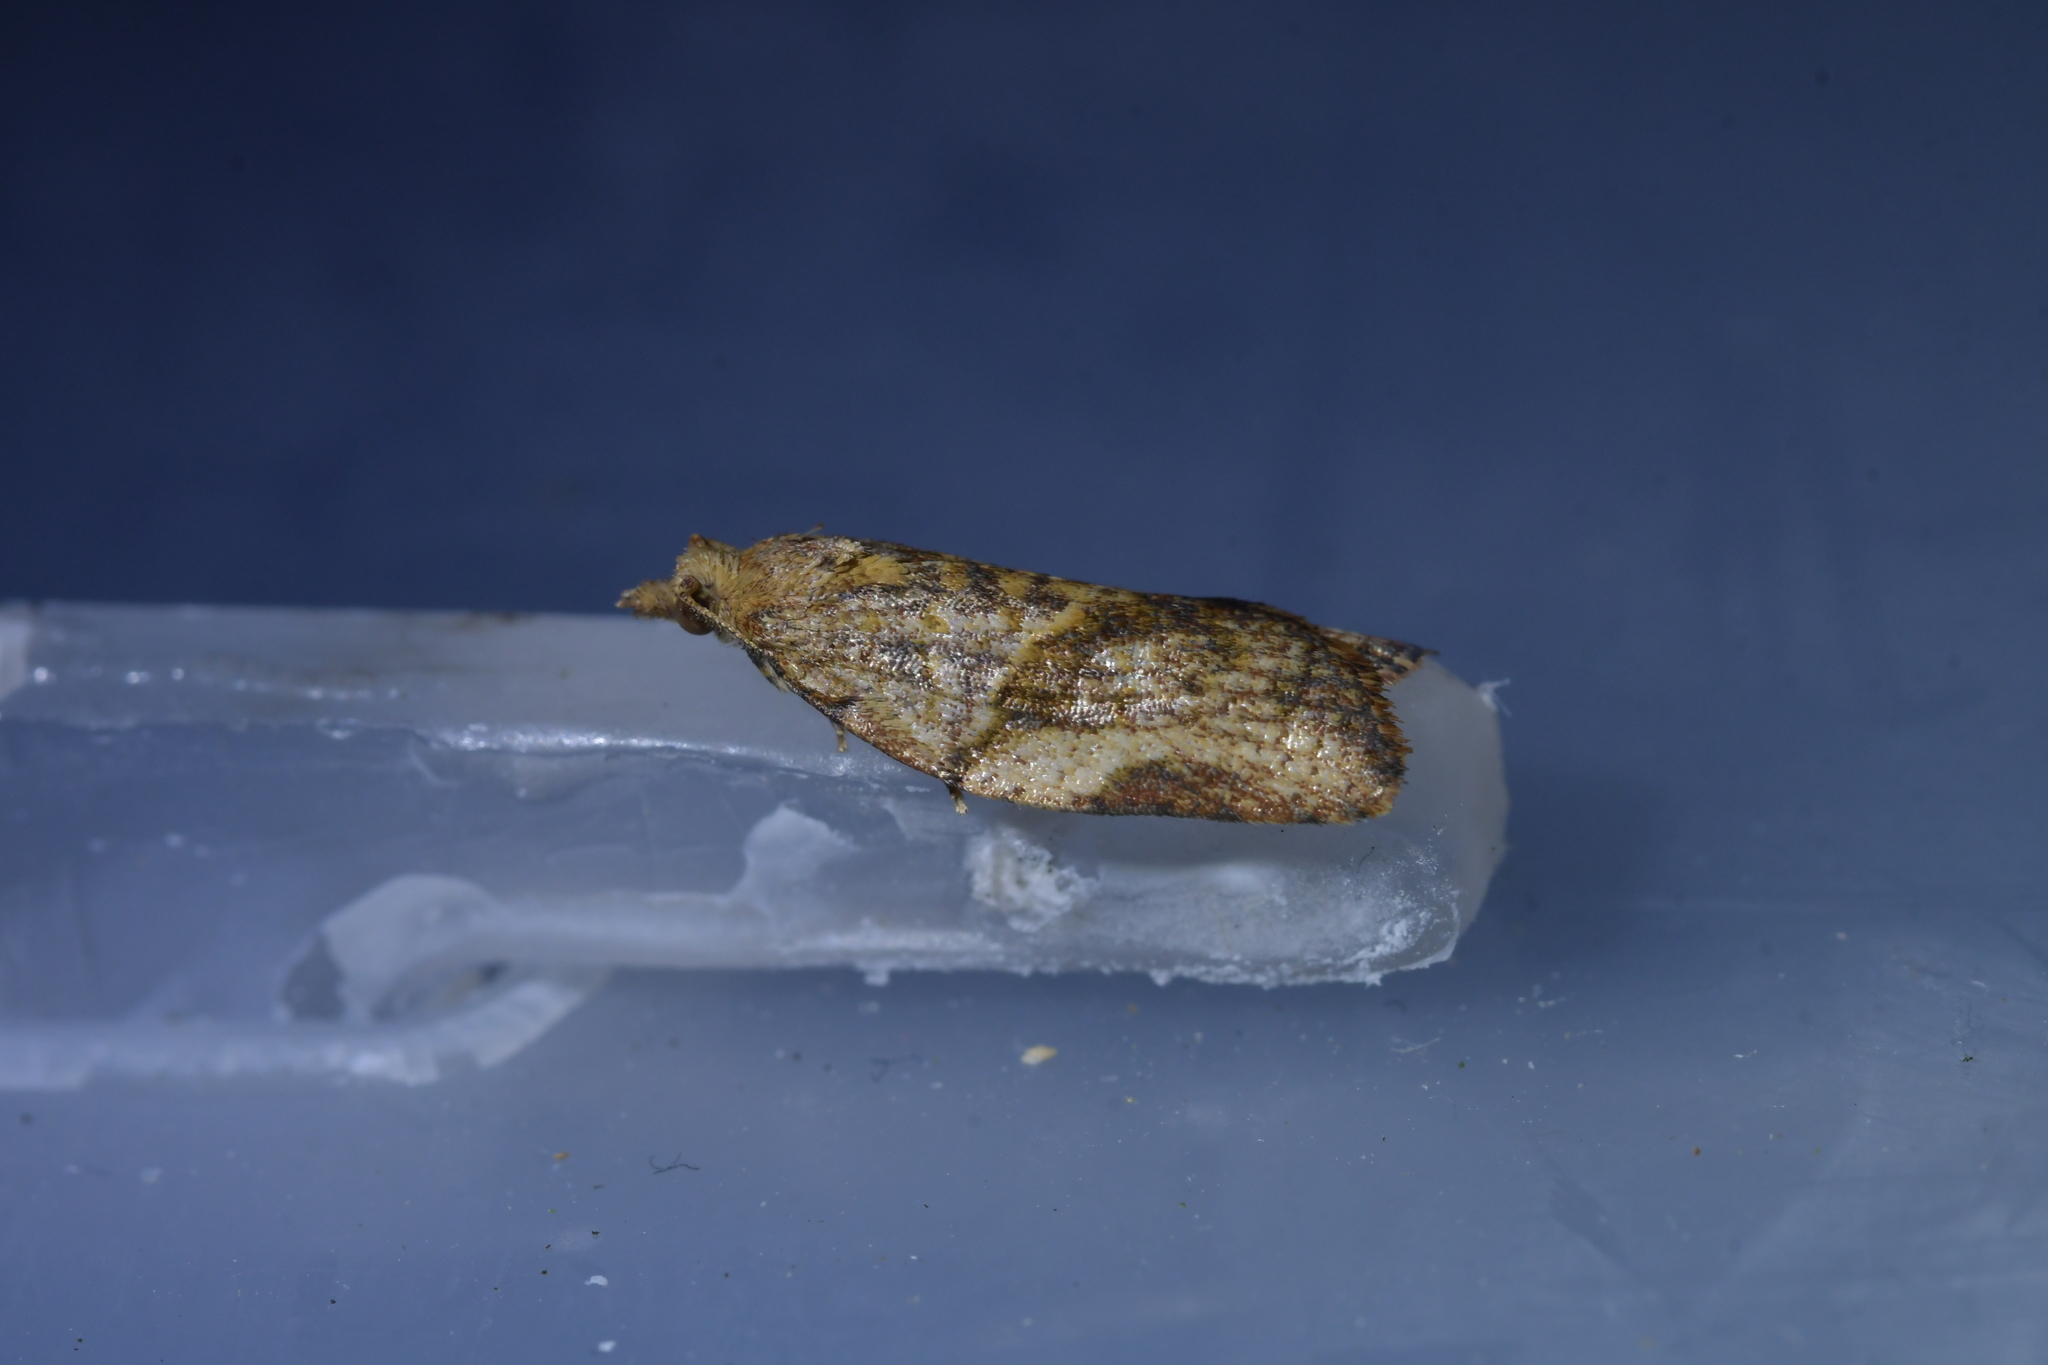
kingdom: Animalia
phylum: Arthropoda
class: Insecta
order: Lepidoptera
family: Tortricidae
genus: Epiphyas
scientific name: Epiphyas postvittana
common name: Light brown apple moth
